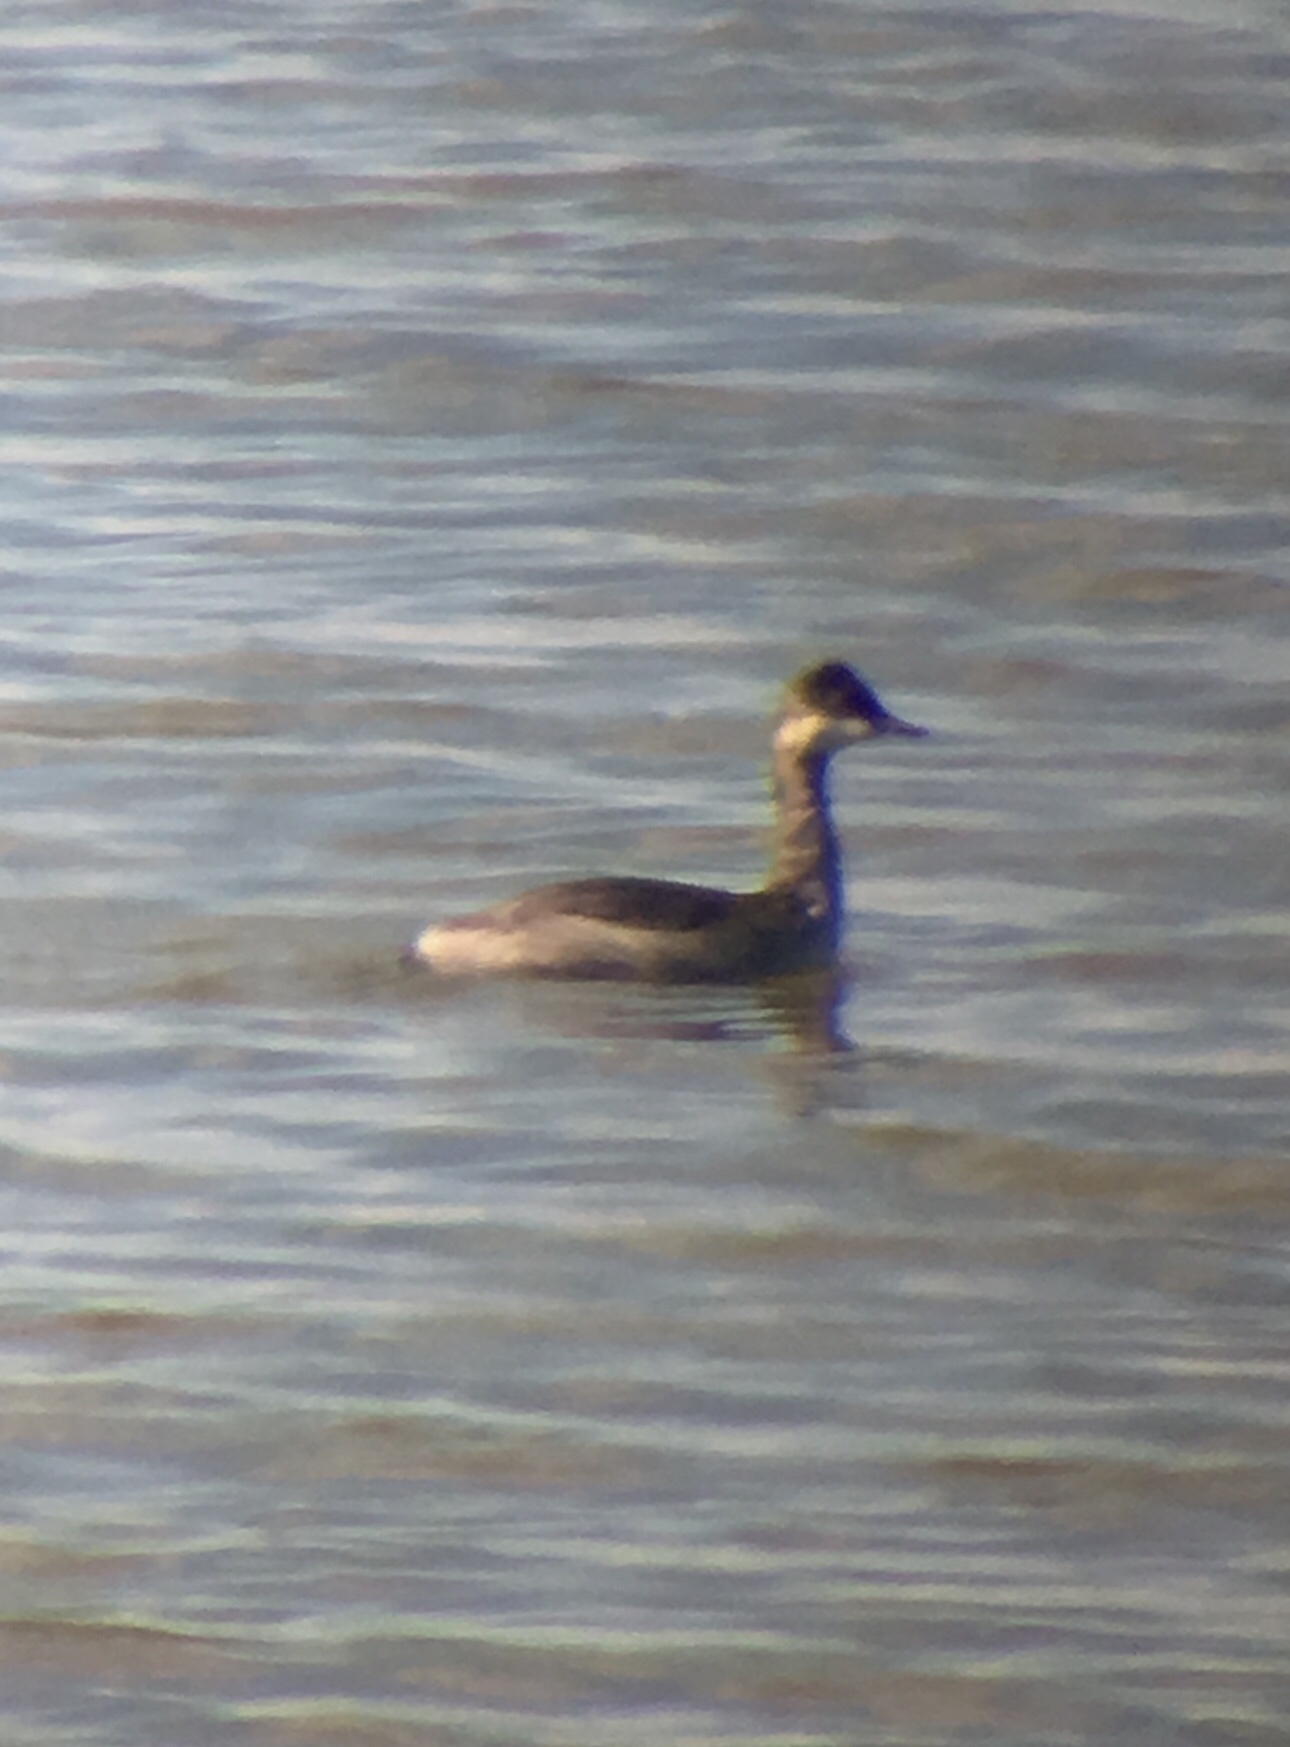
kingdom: Animalia
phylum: Chordata
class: Aves
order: Podicipediformes
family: Podicipedidae
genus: Podiceps
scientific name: Podiceps nigricollis
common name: Black-necked grebe
